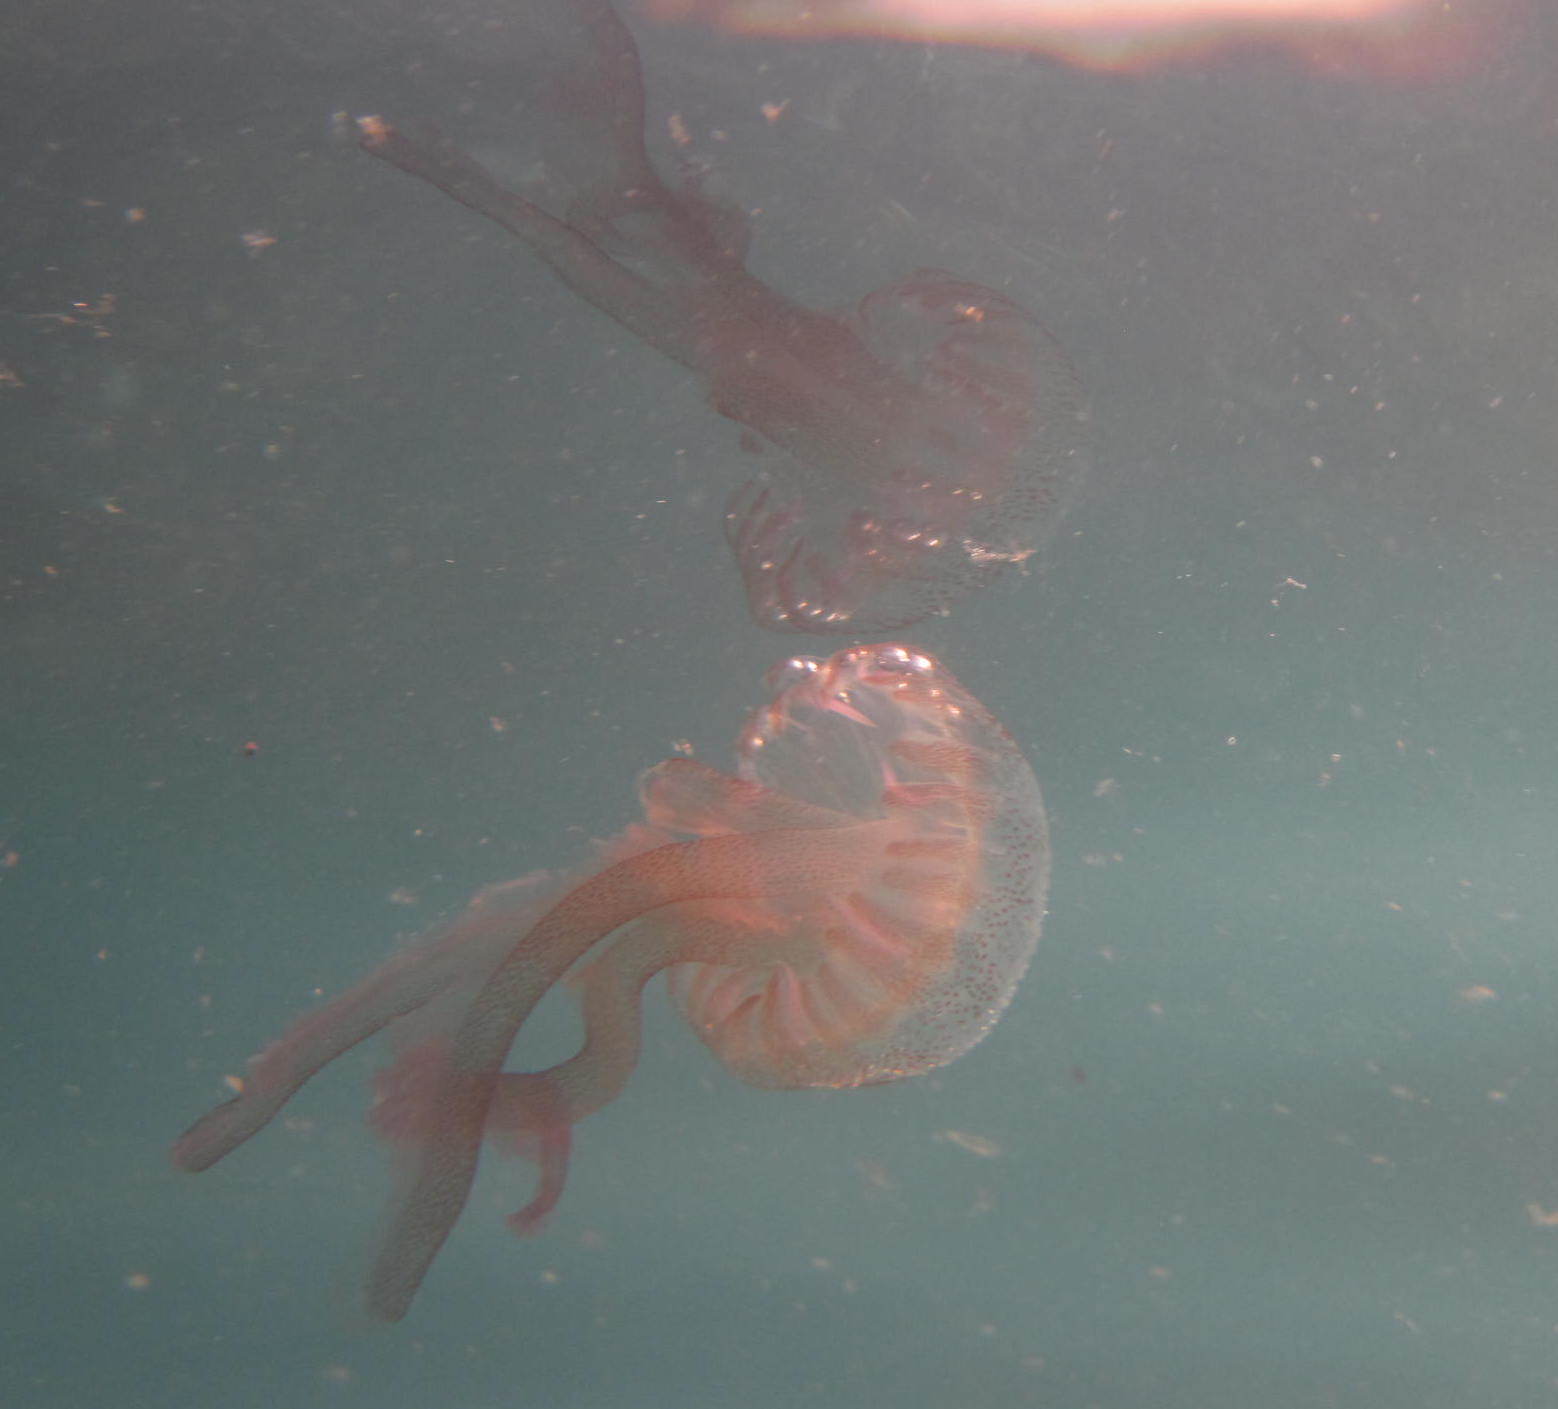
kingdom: Animalia
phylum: Cnidaria
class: Scyphozoa
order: Semaeostomeae
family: Pelagiidae
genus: Pelagia
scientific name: Pelagia noctiluca
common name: Mauve stinger
